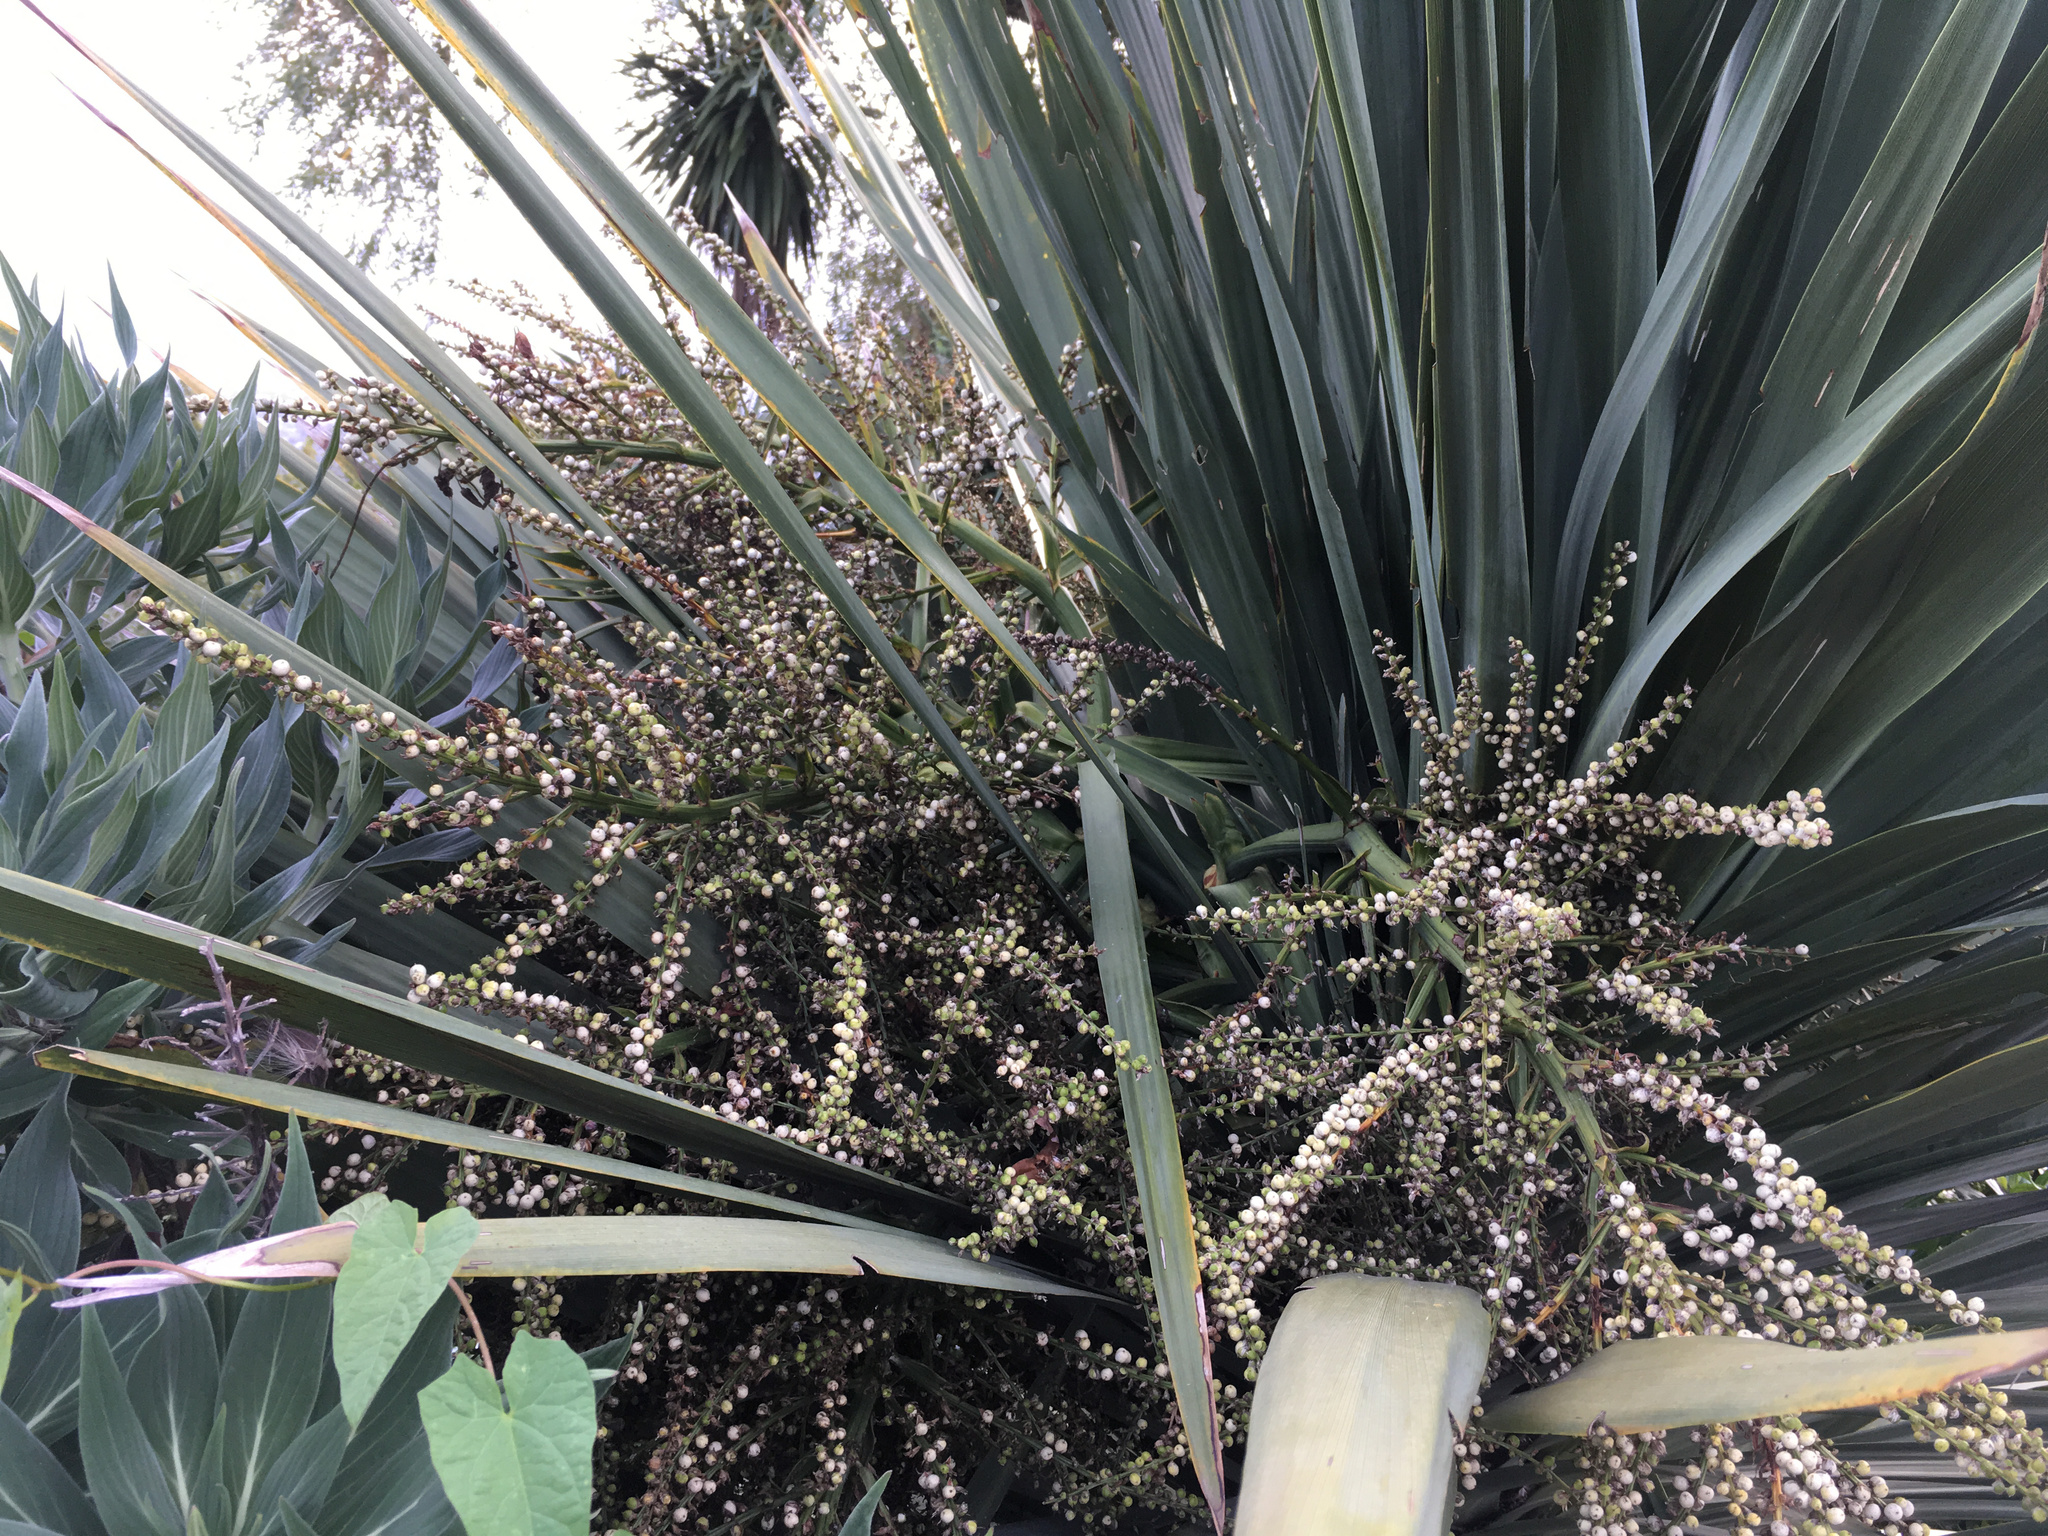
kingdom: Plantae
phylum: Tracheophyta
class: Liliopsida
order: Asparagales
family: Asparagaceae
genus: Cordyline
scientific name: Cordyline australis
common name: Cabbage-palm
